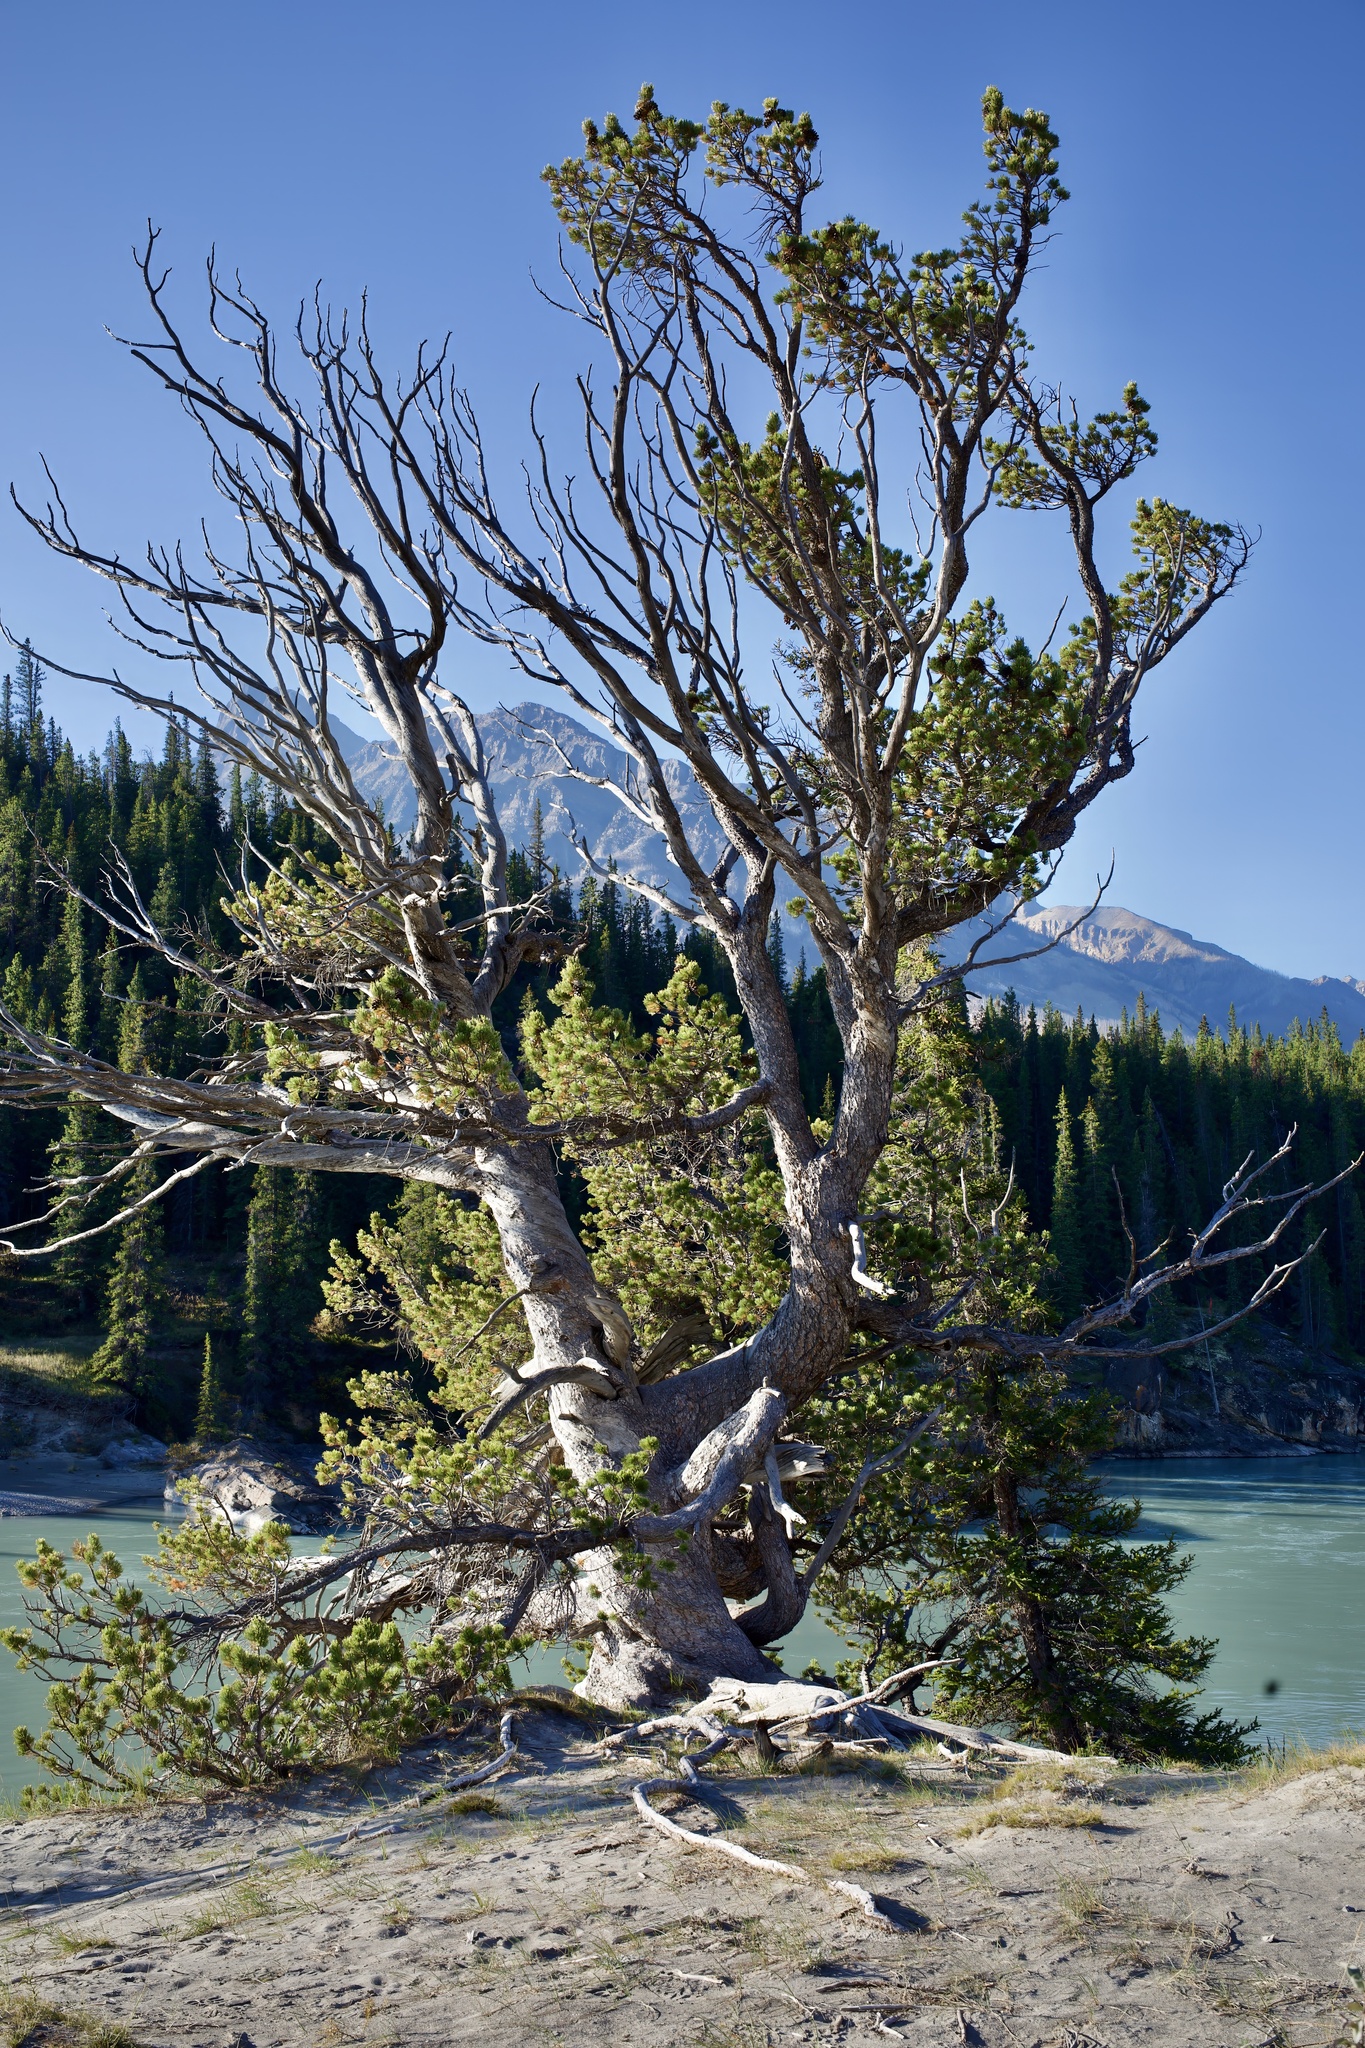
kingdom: Plantae
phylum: Tracheophyta
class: Pinopsida
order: Pinales
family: Pinaceae
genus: Pinus
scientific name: Pinus flexilis
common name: Limber pine
